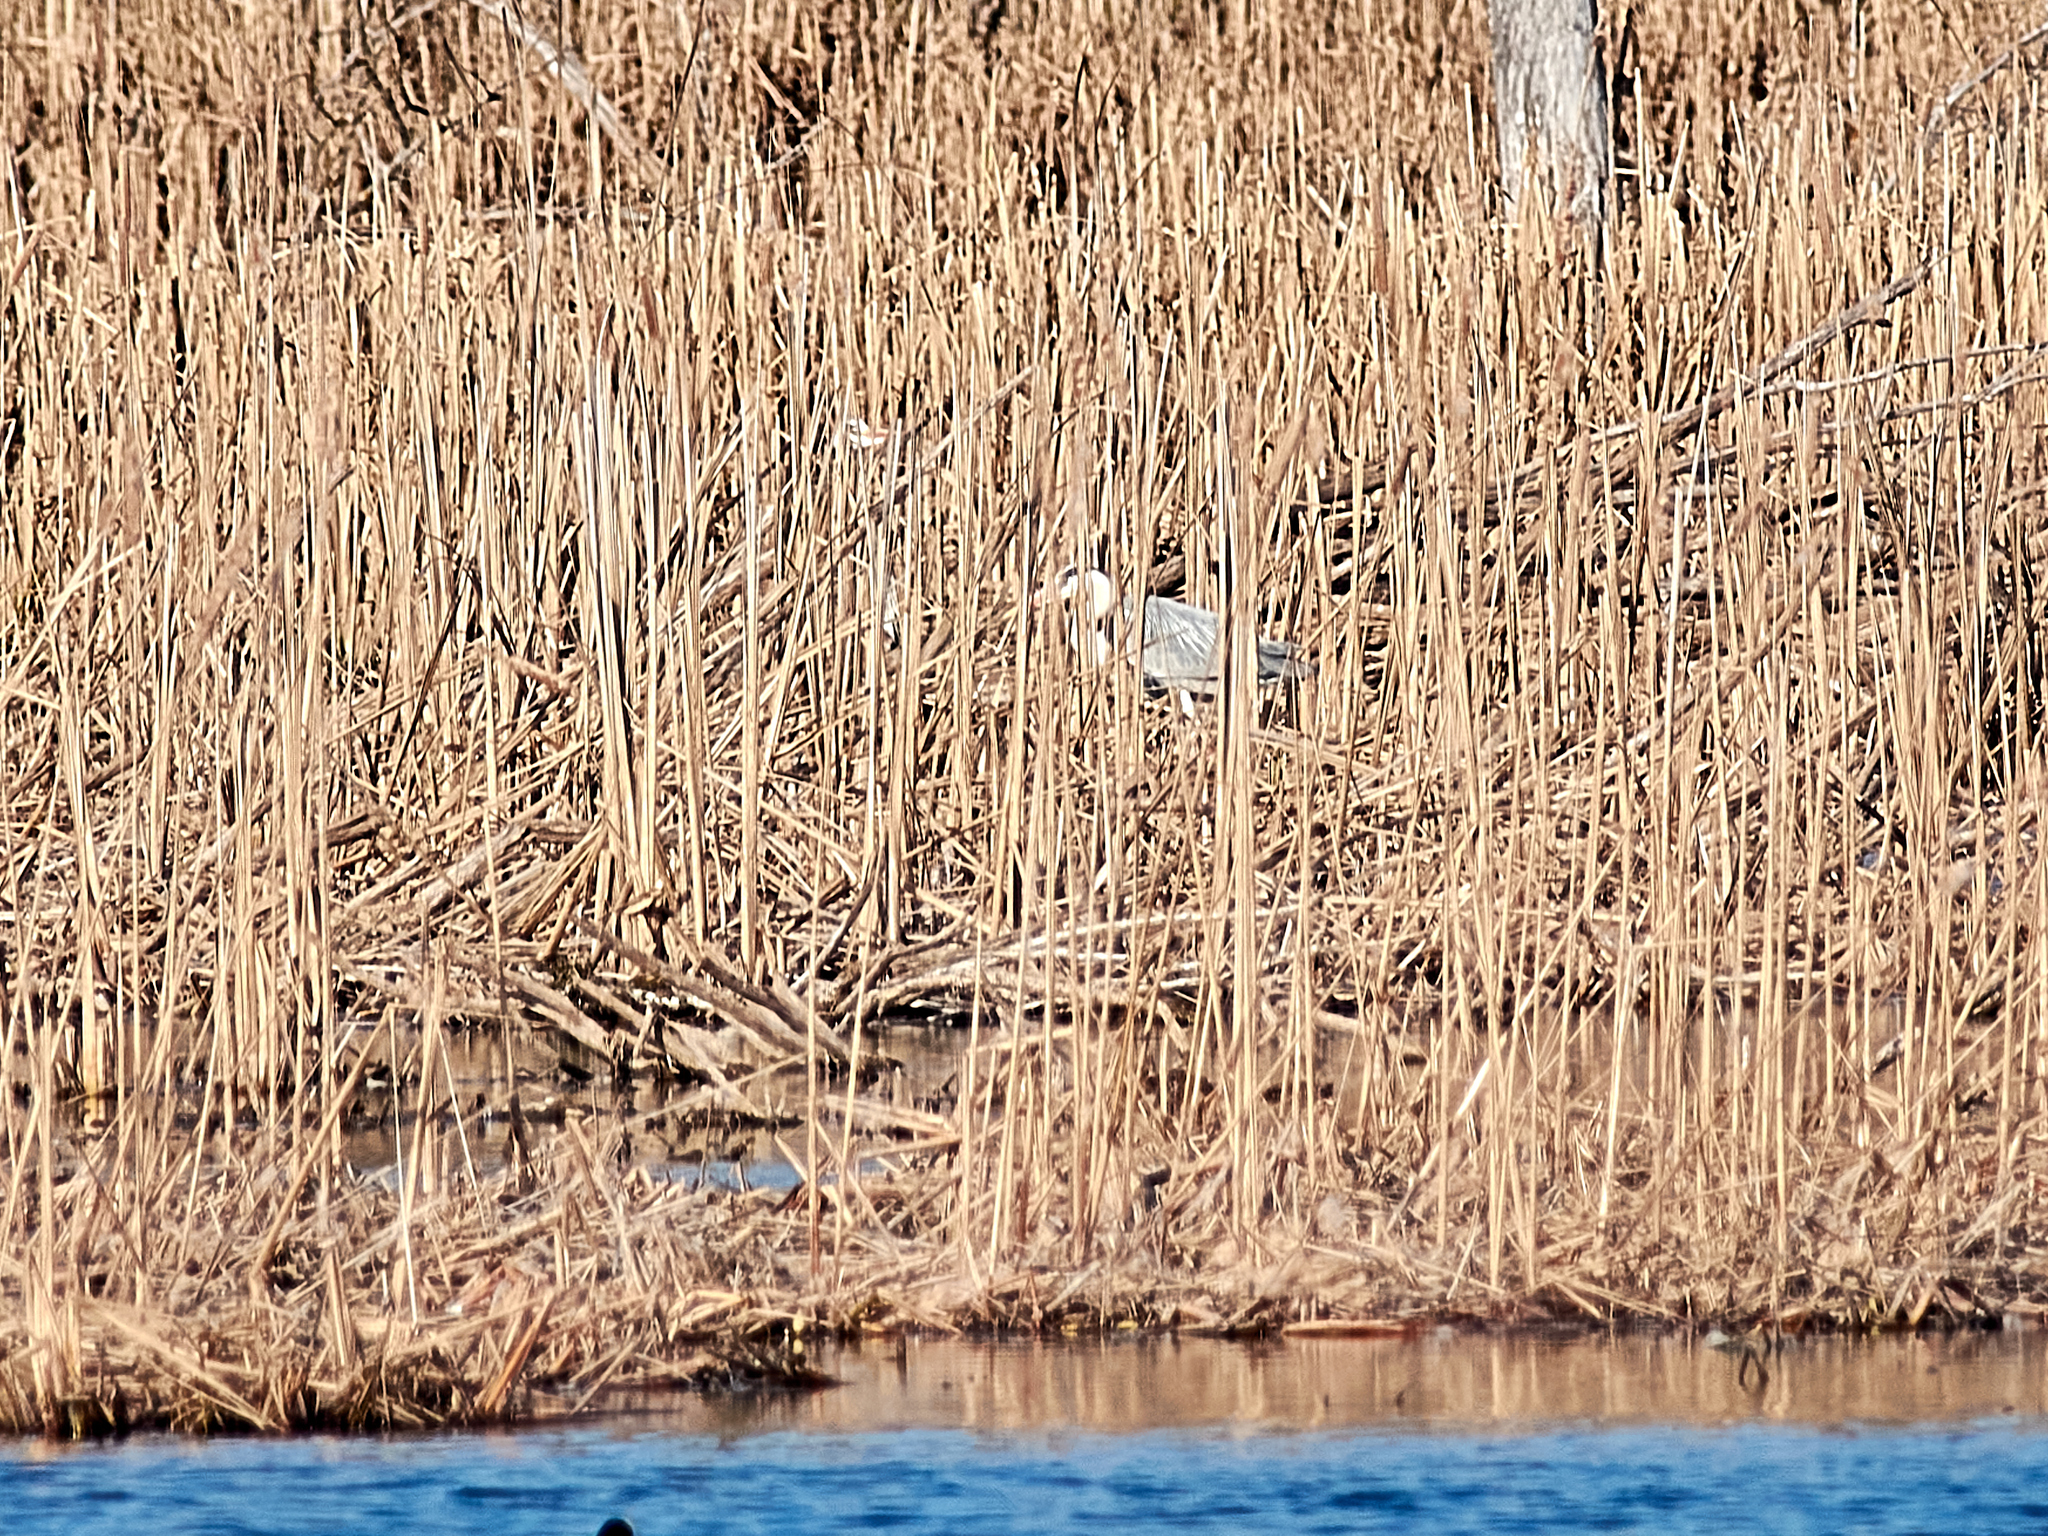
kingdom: Animalia
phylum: Chordata
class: Aves
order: Pelecaniformes
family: Ardeidae
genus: Ardea
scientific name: Ardea cinerea
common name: Grey heron
